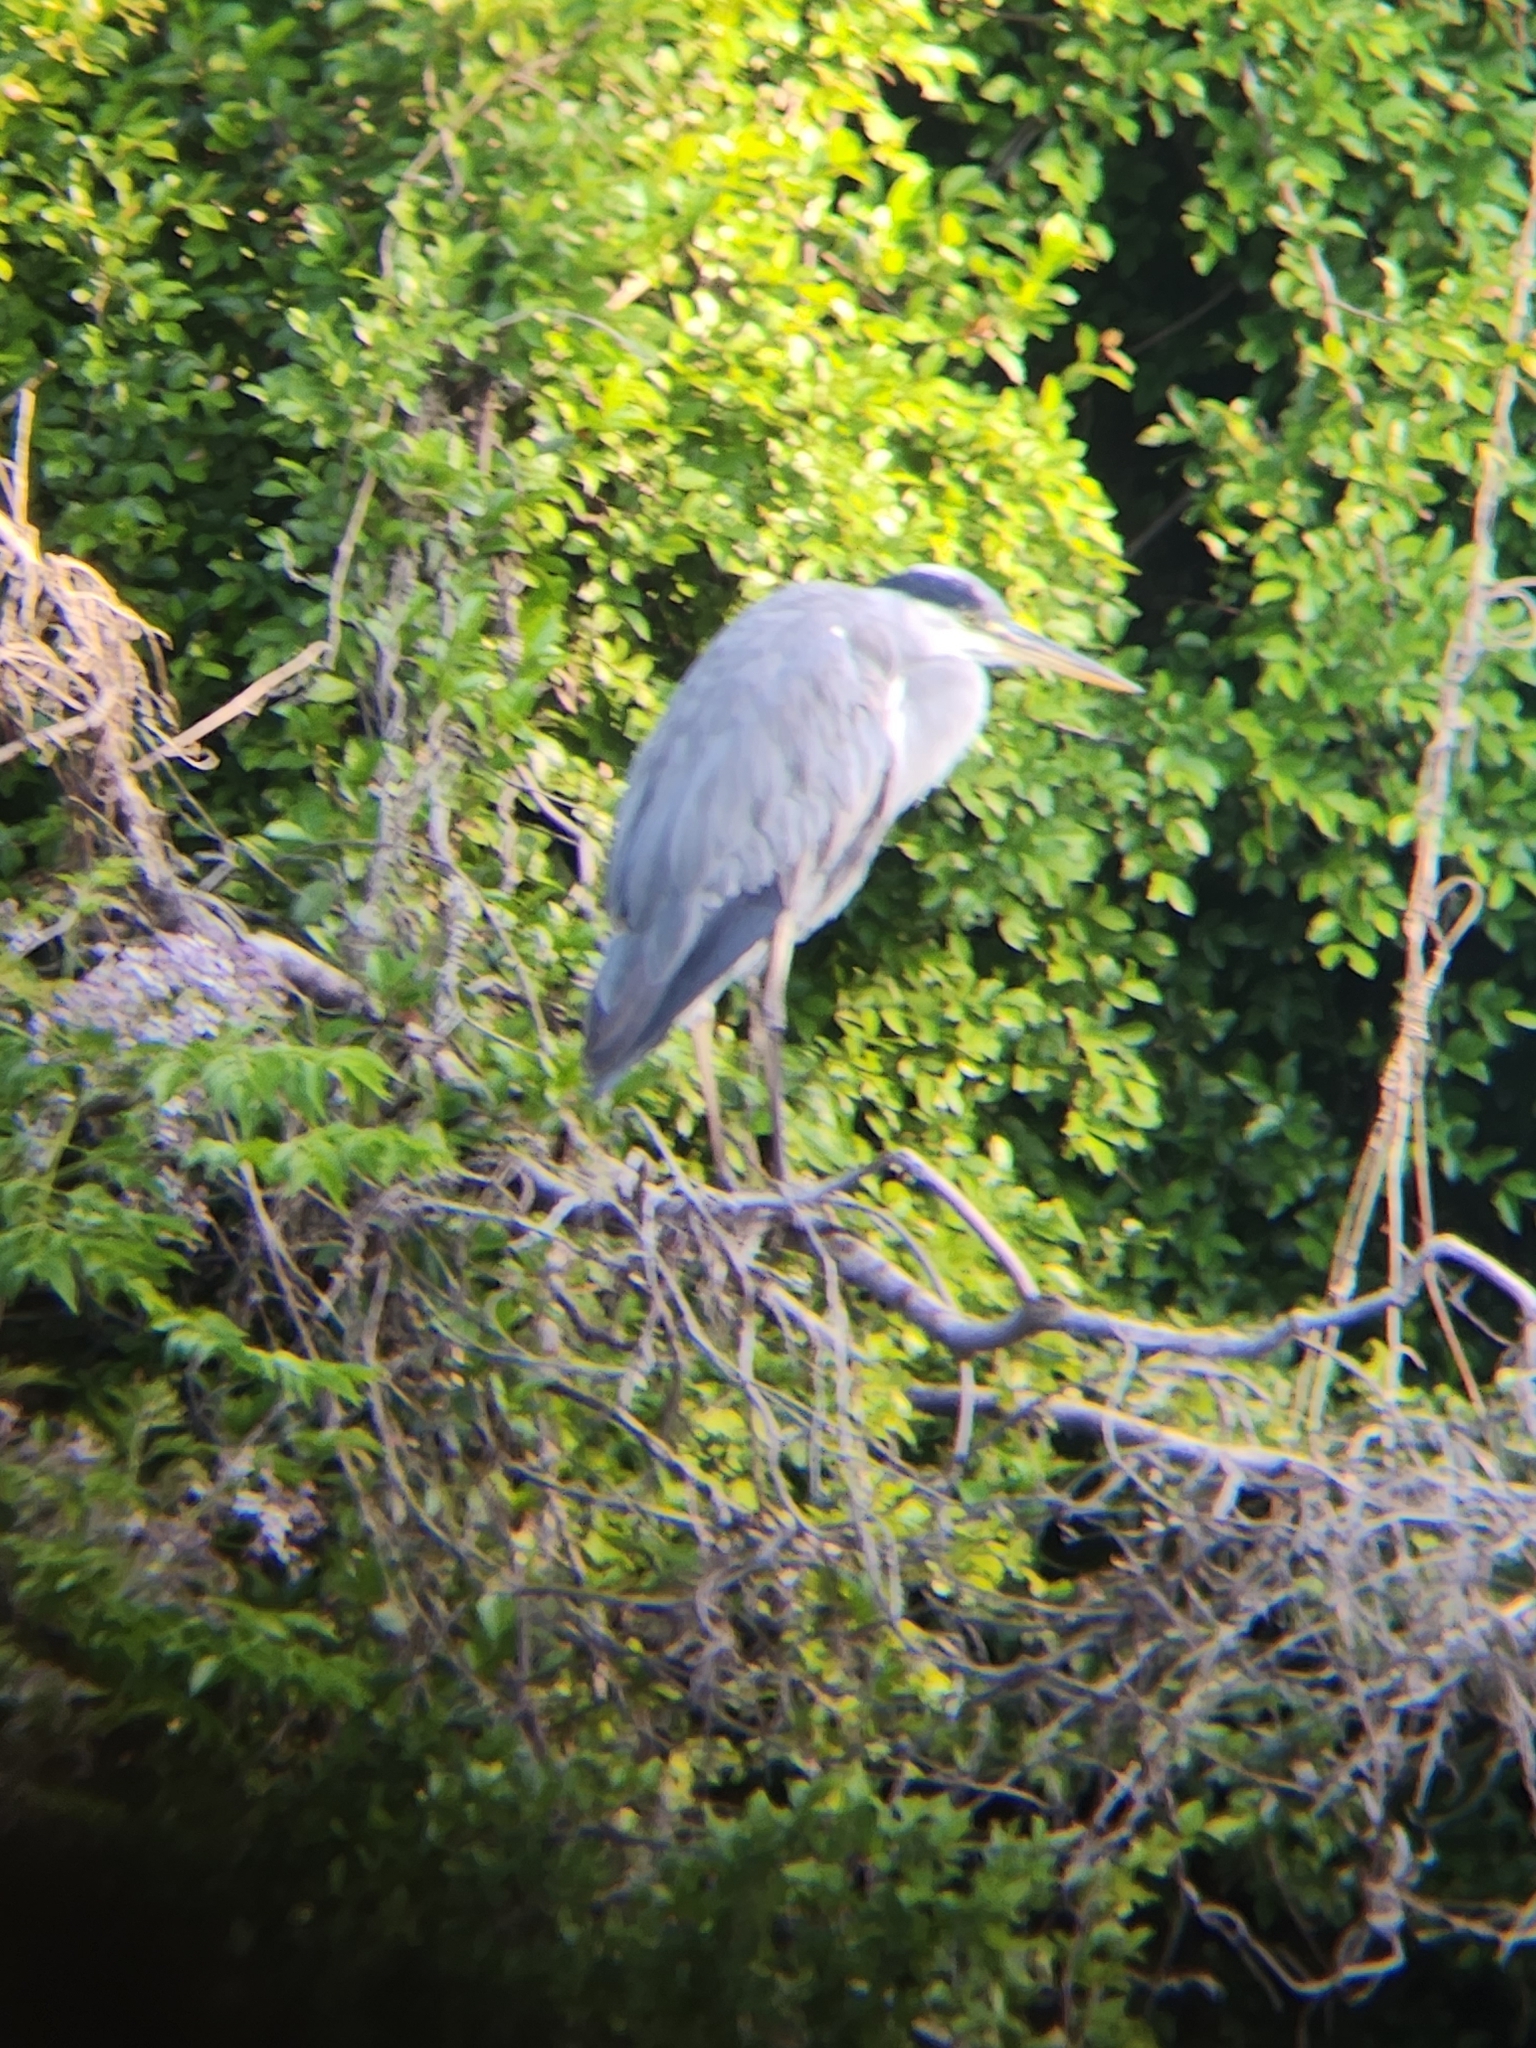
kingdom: Animalia
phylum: Chordata
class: Aves
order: Pelecaniformes
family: Ardeidae
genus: Ardea
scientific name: Ardea cinerea
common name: Grey heron
